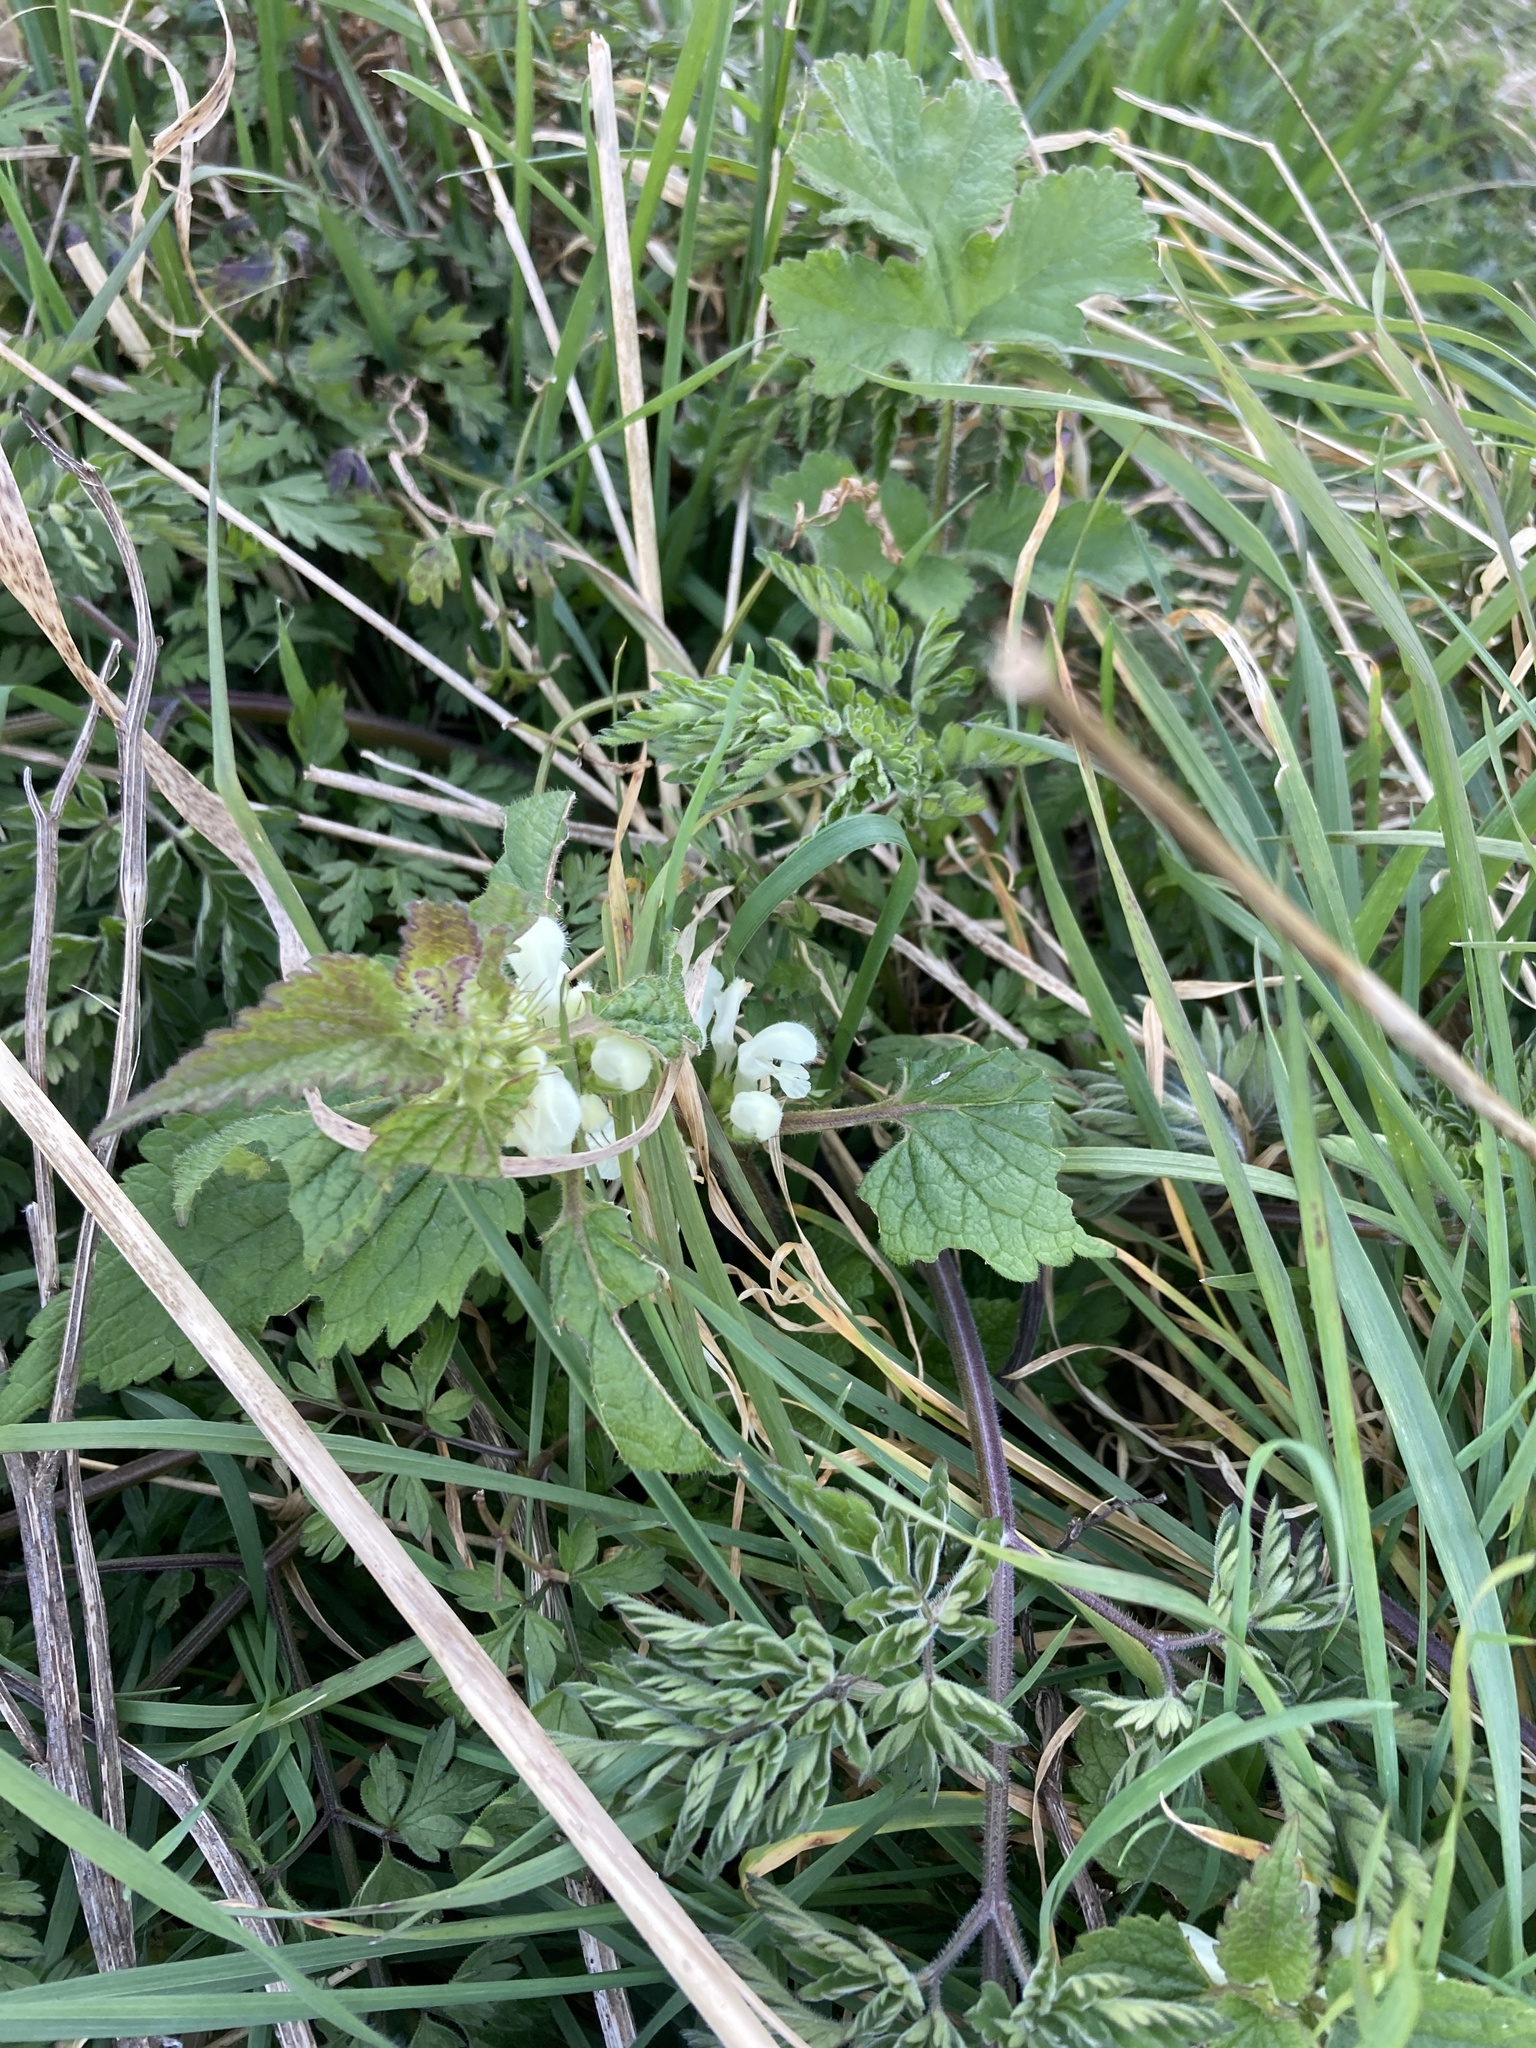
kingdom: Plantae
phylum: Tracheophyta
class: Magnoliopsida
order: Lamiales
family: Lamiaceae
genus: Lamium
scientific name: Lamium album
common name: White dead-nettle
